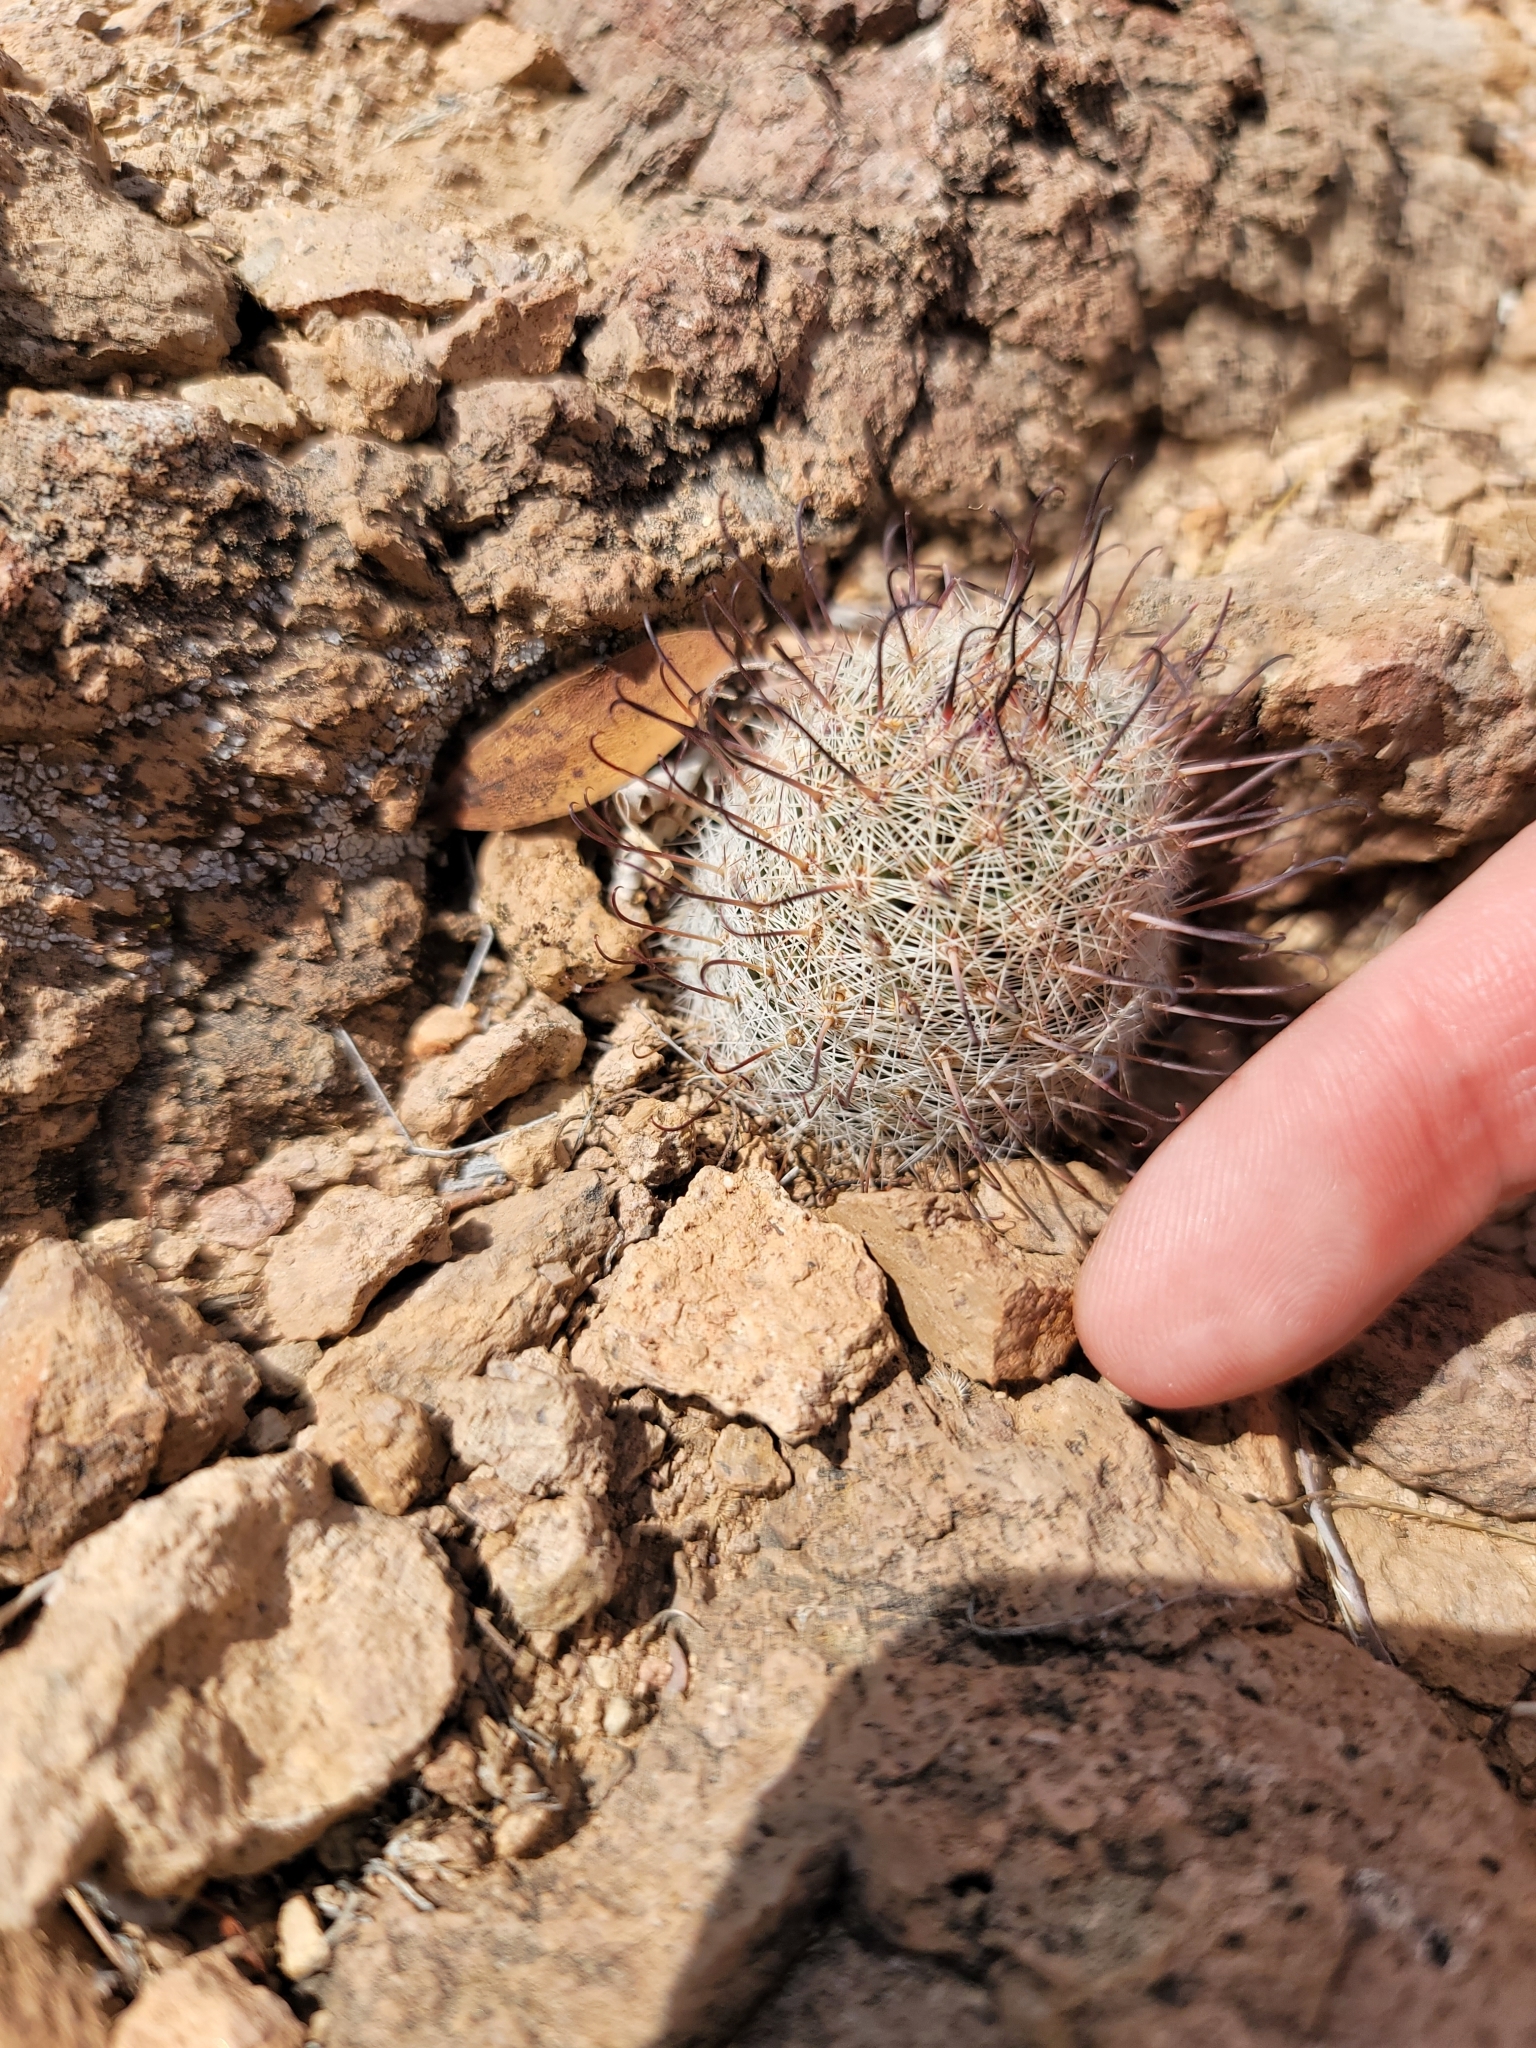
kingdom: Plantae
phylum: Tracheophyta
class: Magnoliopsida
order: Caryophyllales
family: Cactaceae
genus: Cochemiea
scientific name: Cochemiea grahamii
